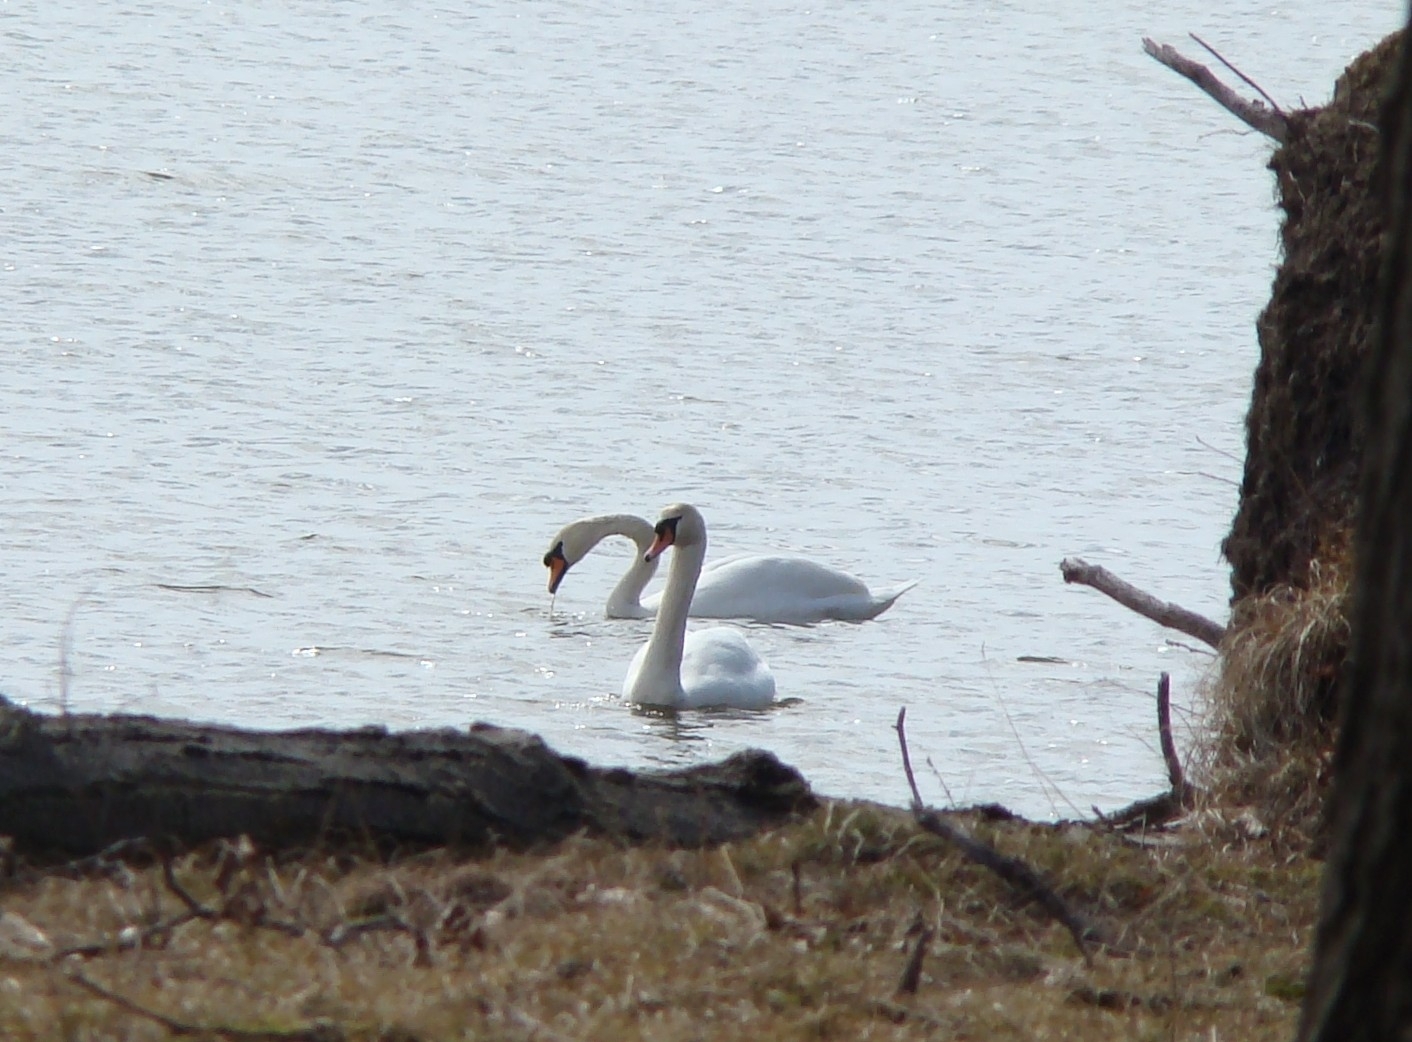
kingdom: Animalia
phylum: Chordata
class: Aves
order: Anseriformes
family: Anatidae
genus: Cygnus
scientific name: Cygnus olor
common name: Mute swan
